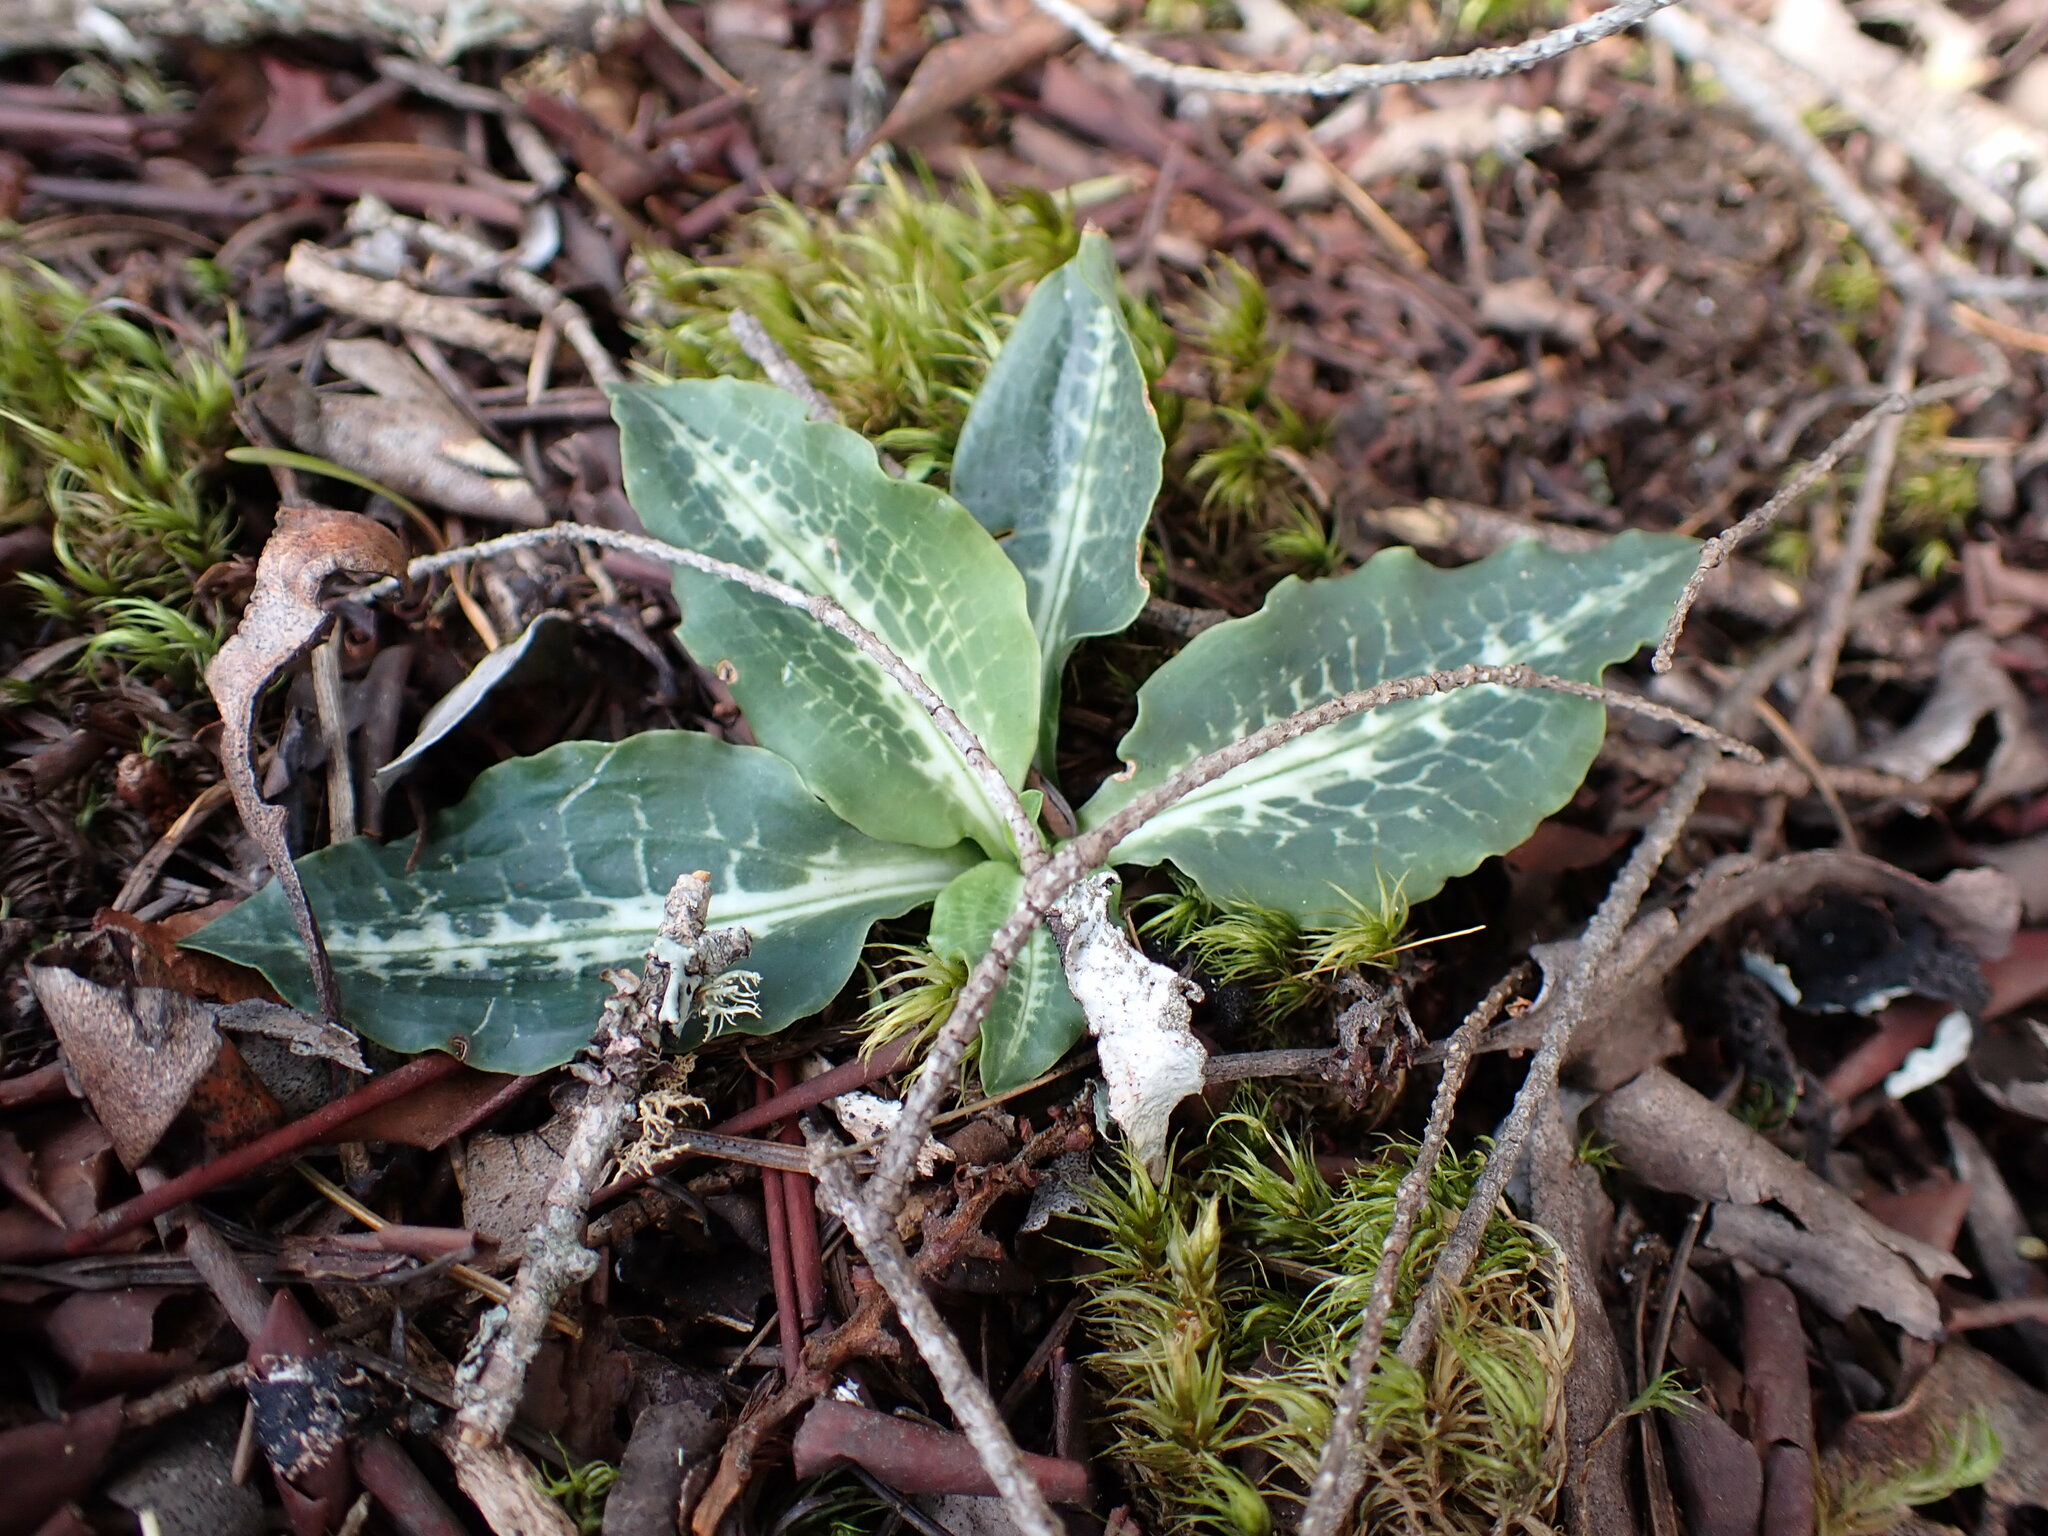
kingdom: Plantae
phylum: Tracheophyta
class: Liliopsida
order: Asparagales
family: Orchidaceae
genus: Goodyera
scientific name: Goodyera oblongifolia
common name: Giant rattlesnake-plantain
